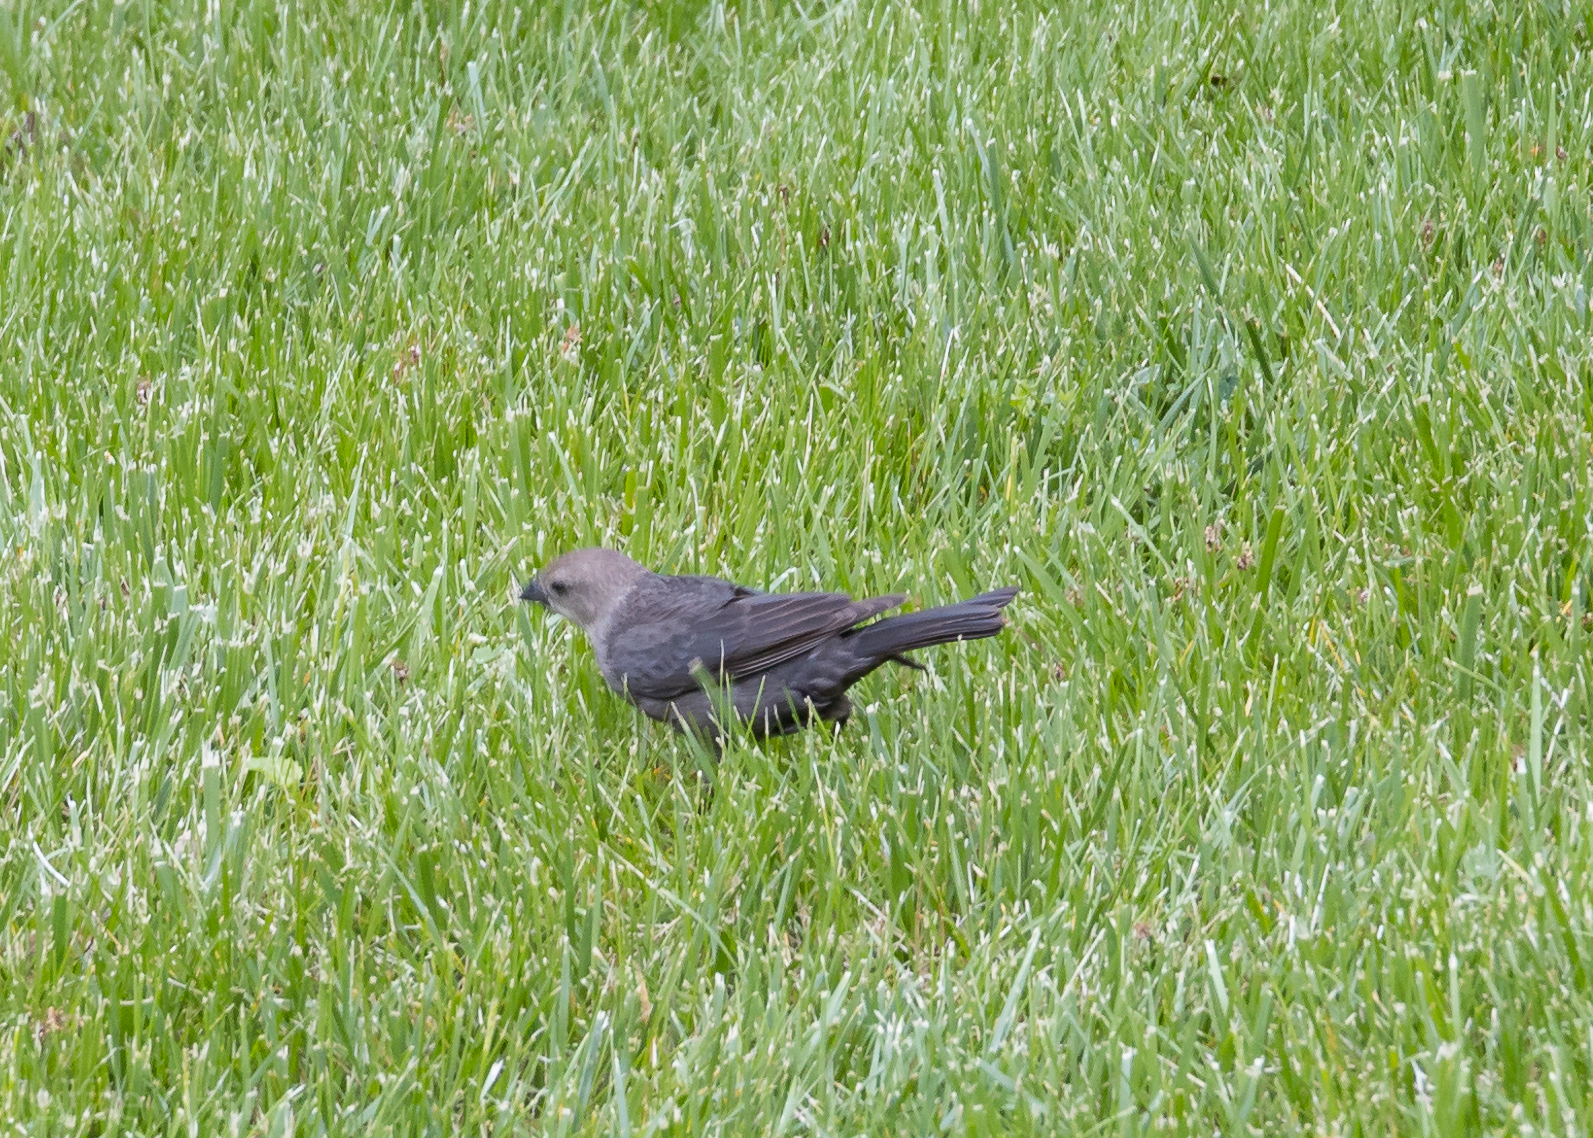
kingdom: Animalia
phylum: Chordata
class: Aves
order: Passeriformes
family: Icteridae
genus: Molothrus
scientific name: Molothrus ater
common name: Brown-headed cowbird
